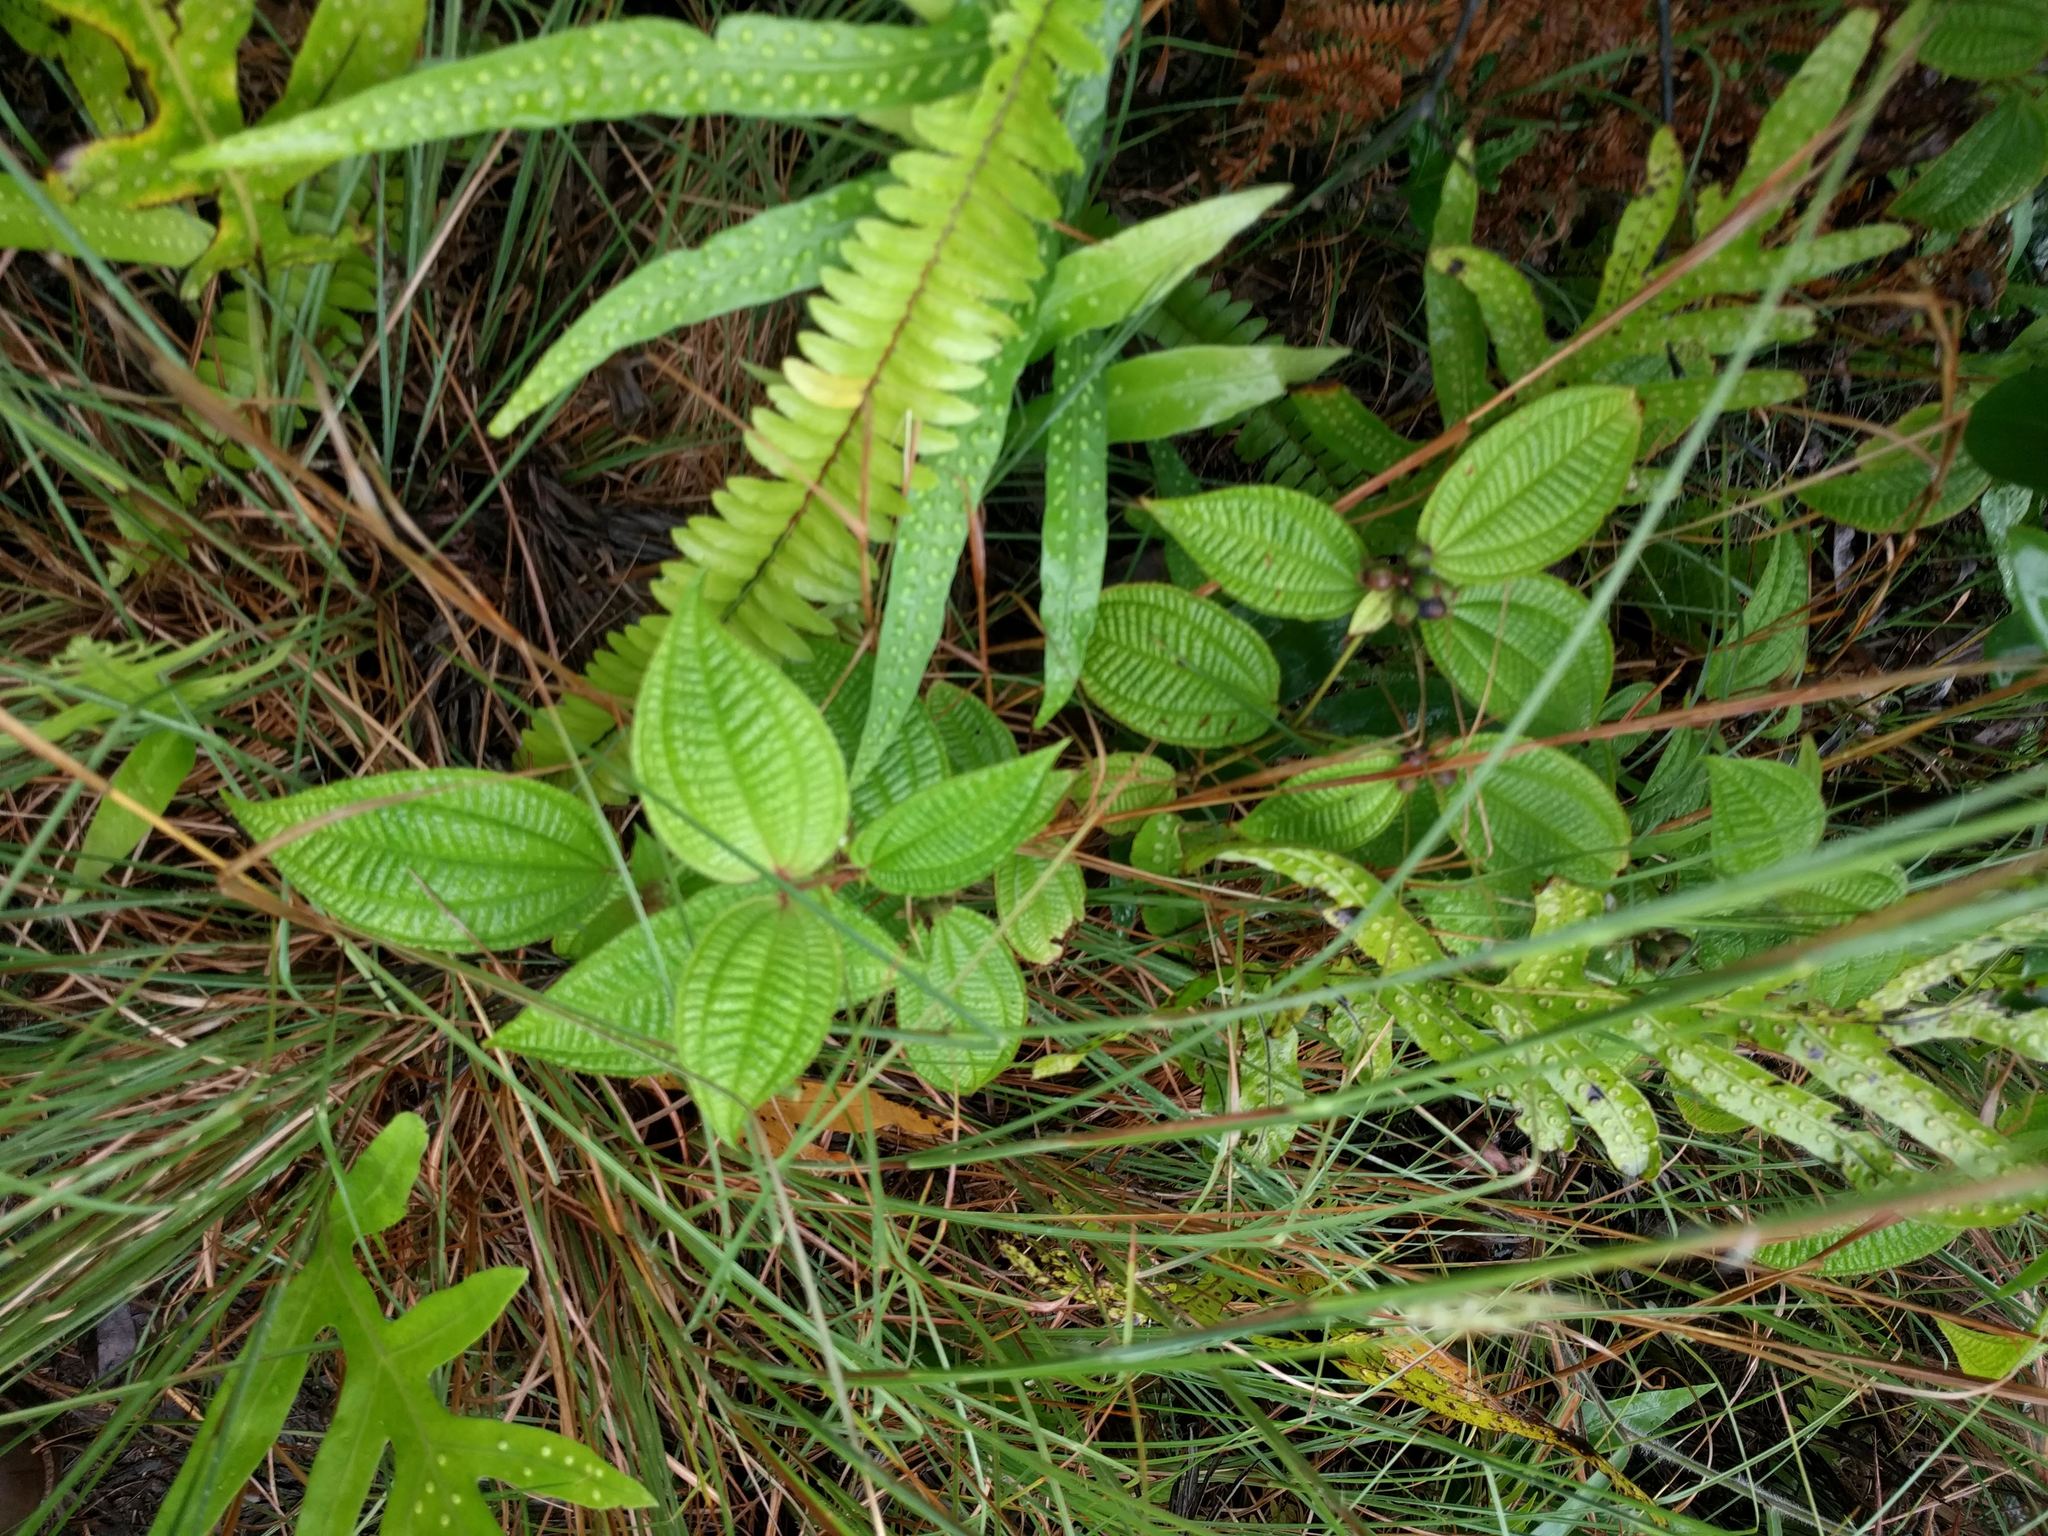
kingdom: Plantae
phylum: Tracheophyta
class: Magnoliopsida
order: Myrtales
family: Melastomataceae
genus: Miconia
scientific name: Miconia crenata
